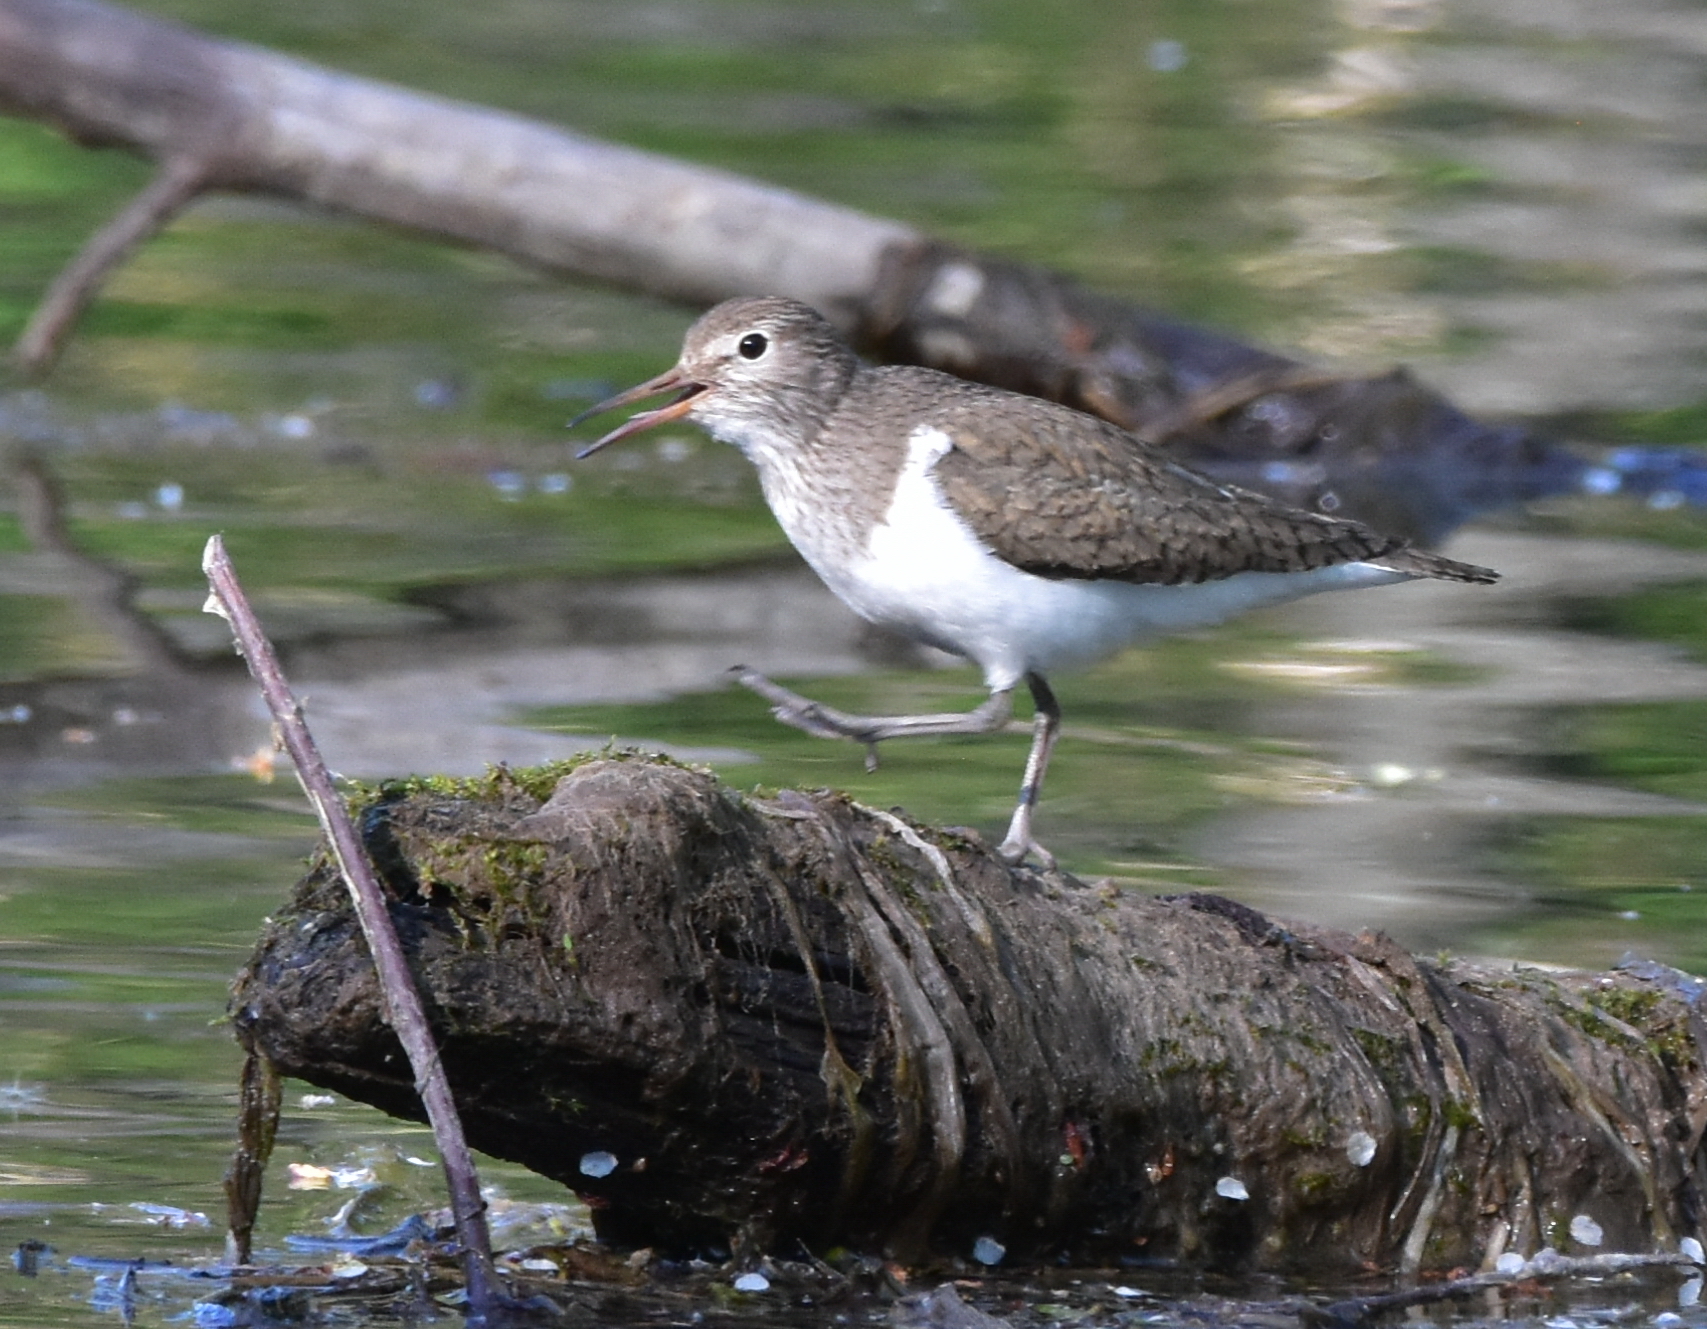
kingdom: Animalia
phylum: Chordata
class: Aves
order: Charadriiformes
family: Scolopacidae
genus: Actitis
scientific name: Actitis hypoleucos
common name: Common sandpiper
